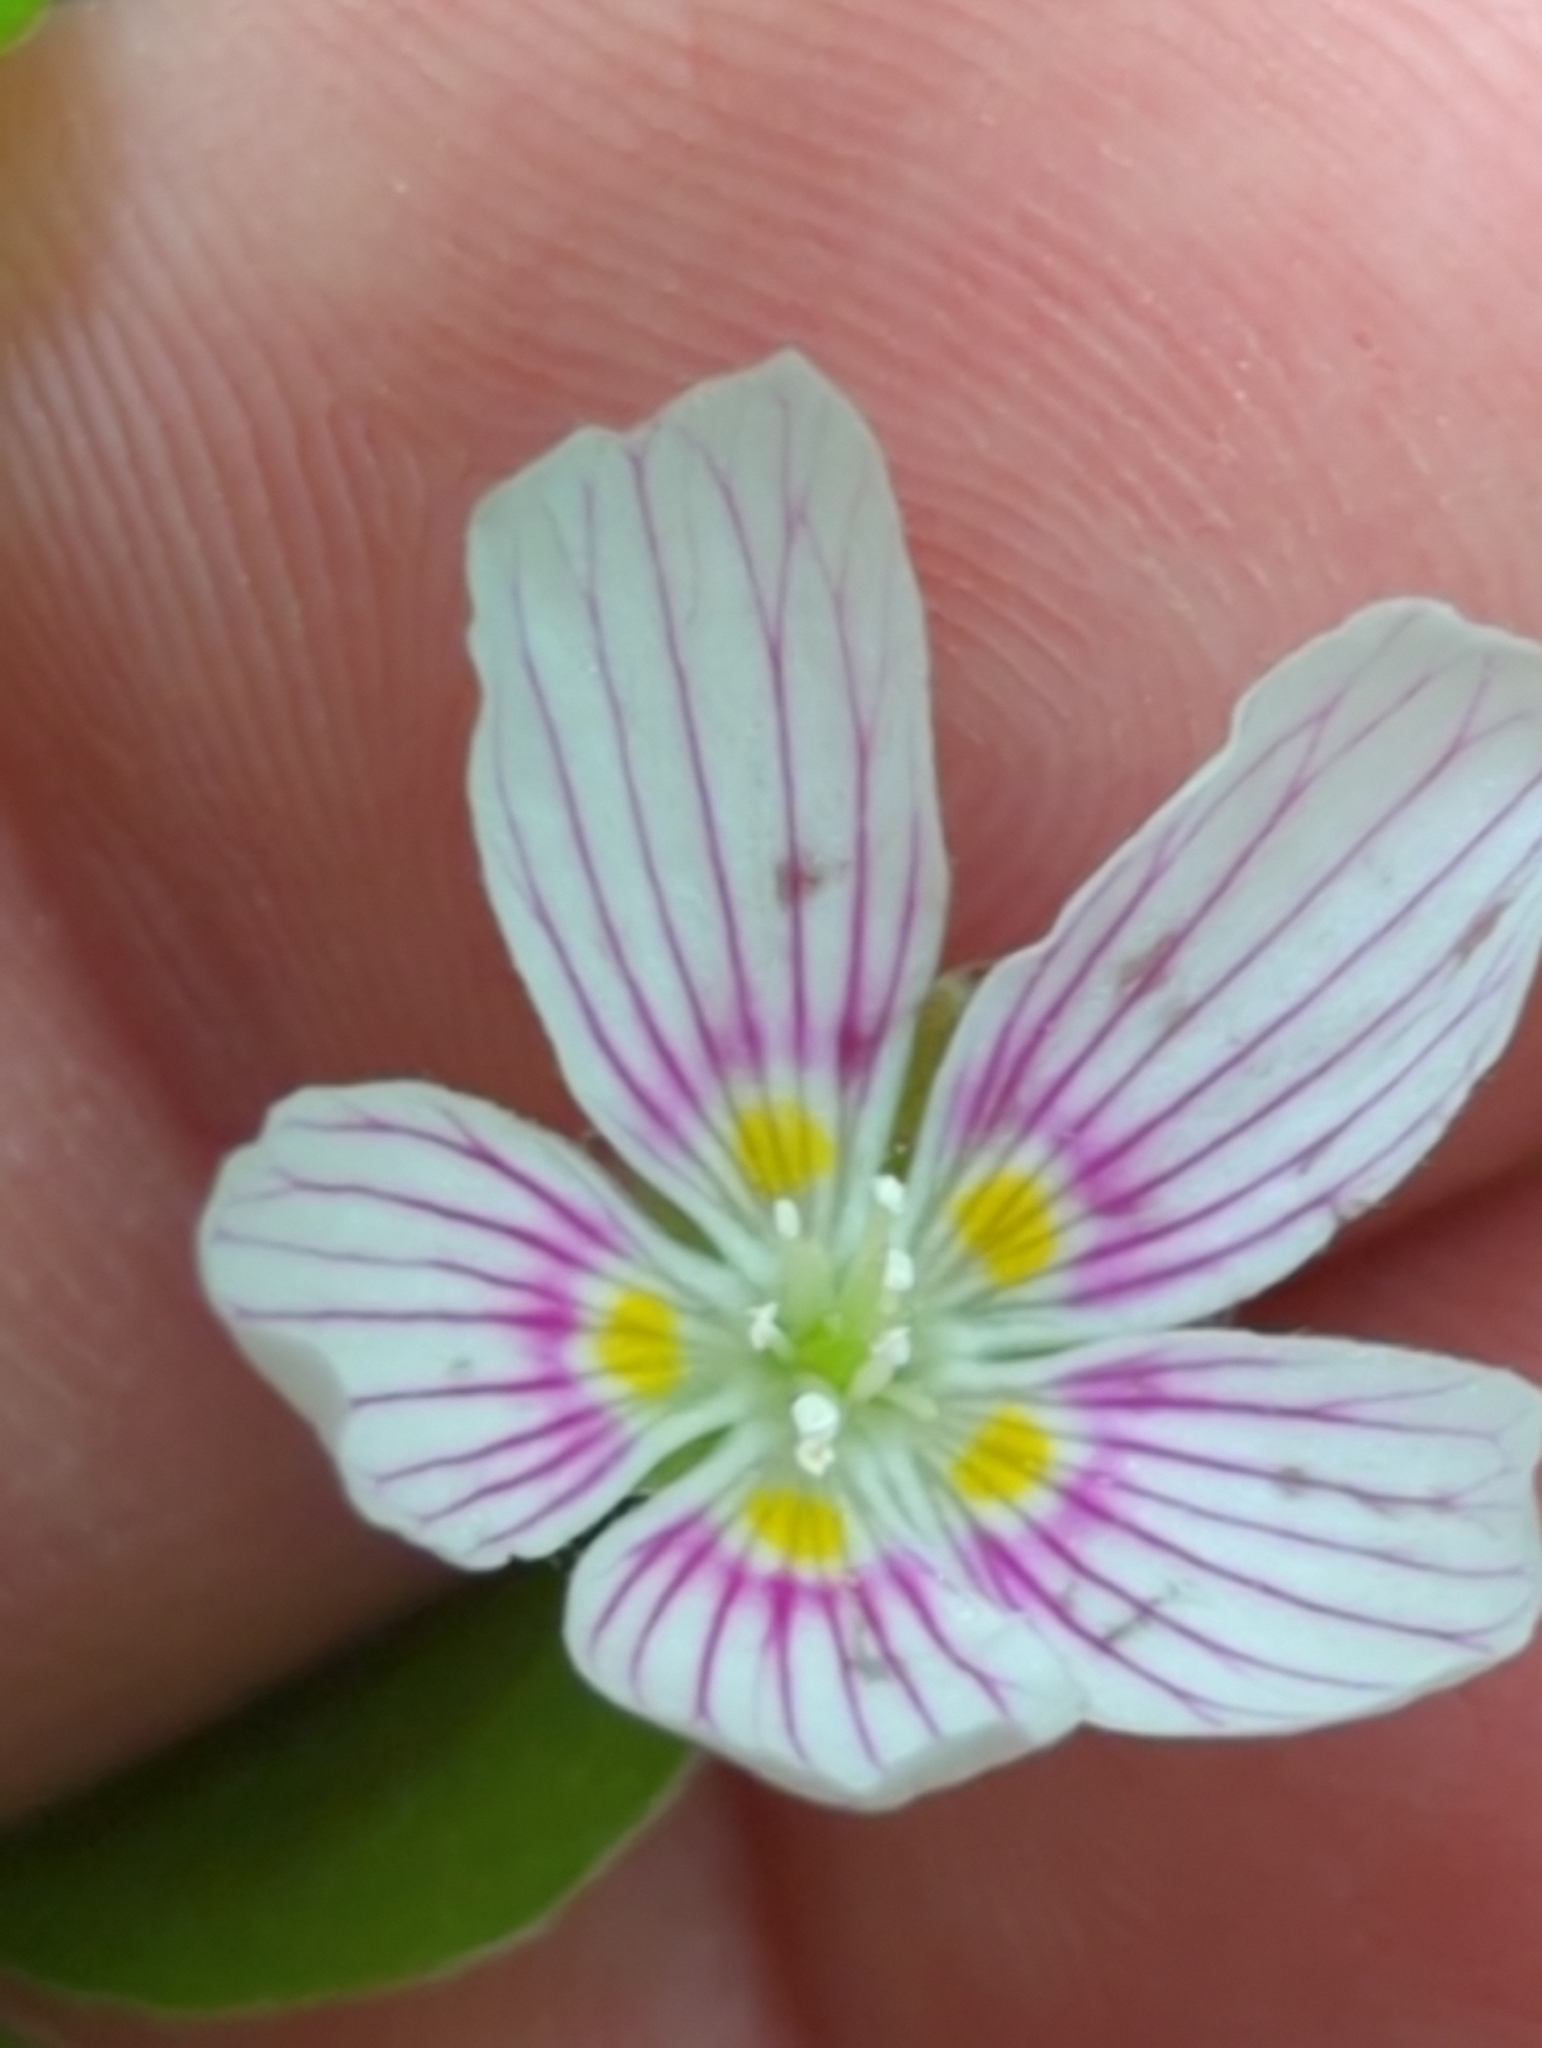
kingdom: Plantae
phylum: Tracheophyta
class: Magnoliopsida
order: Oxalidales
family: Oxalidaceae
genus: Oxalis
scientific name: Oxalis montana
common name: American wood-sorrel
